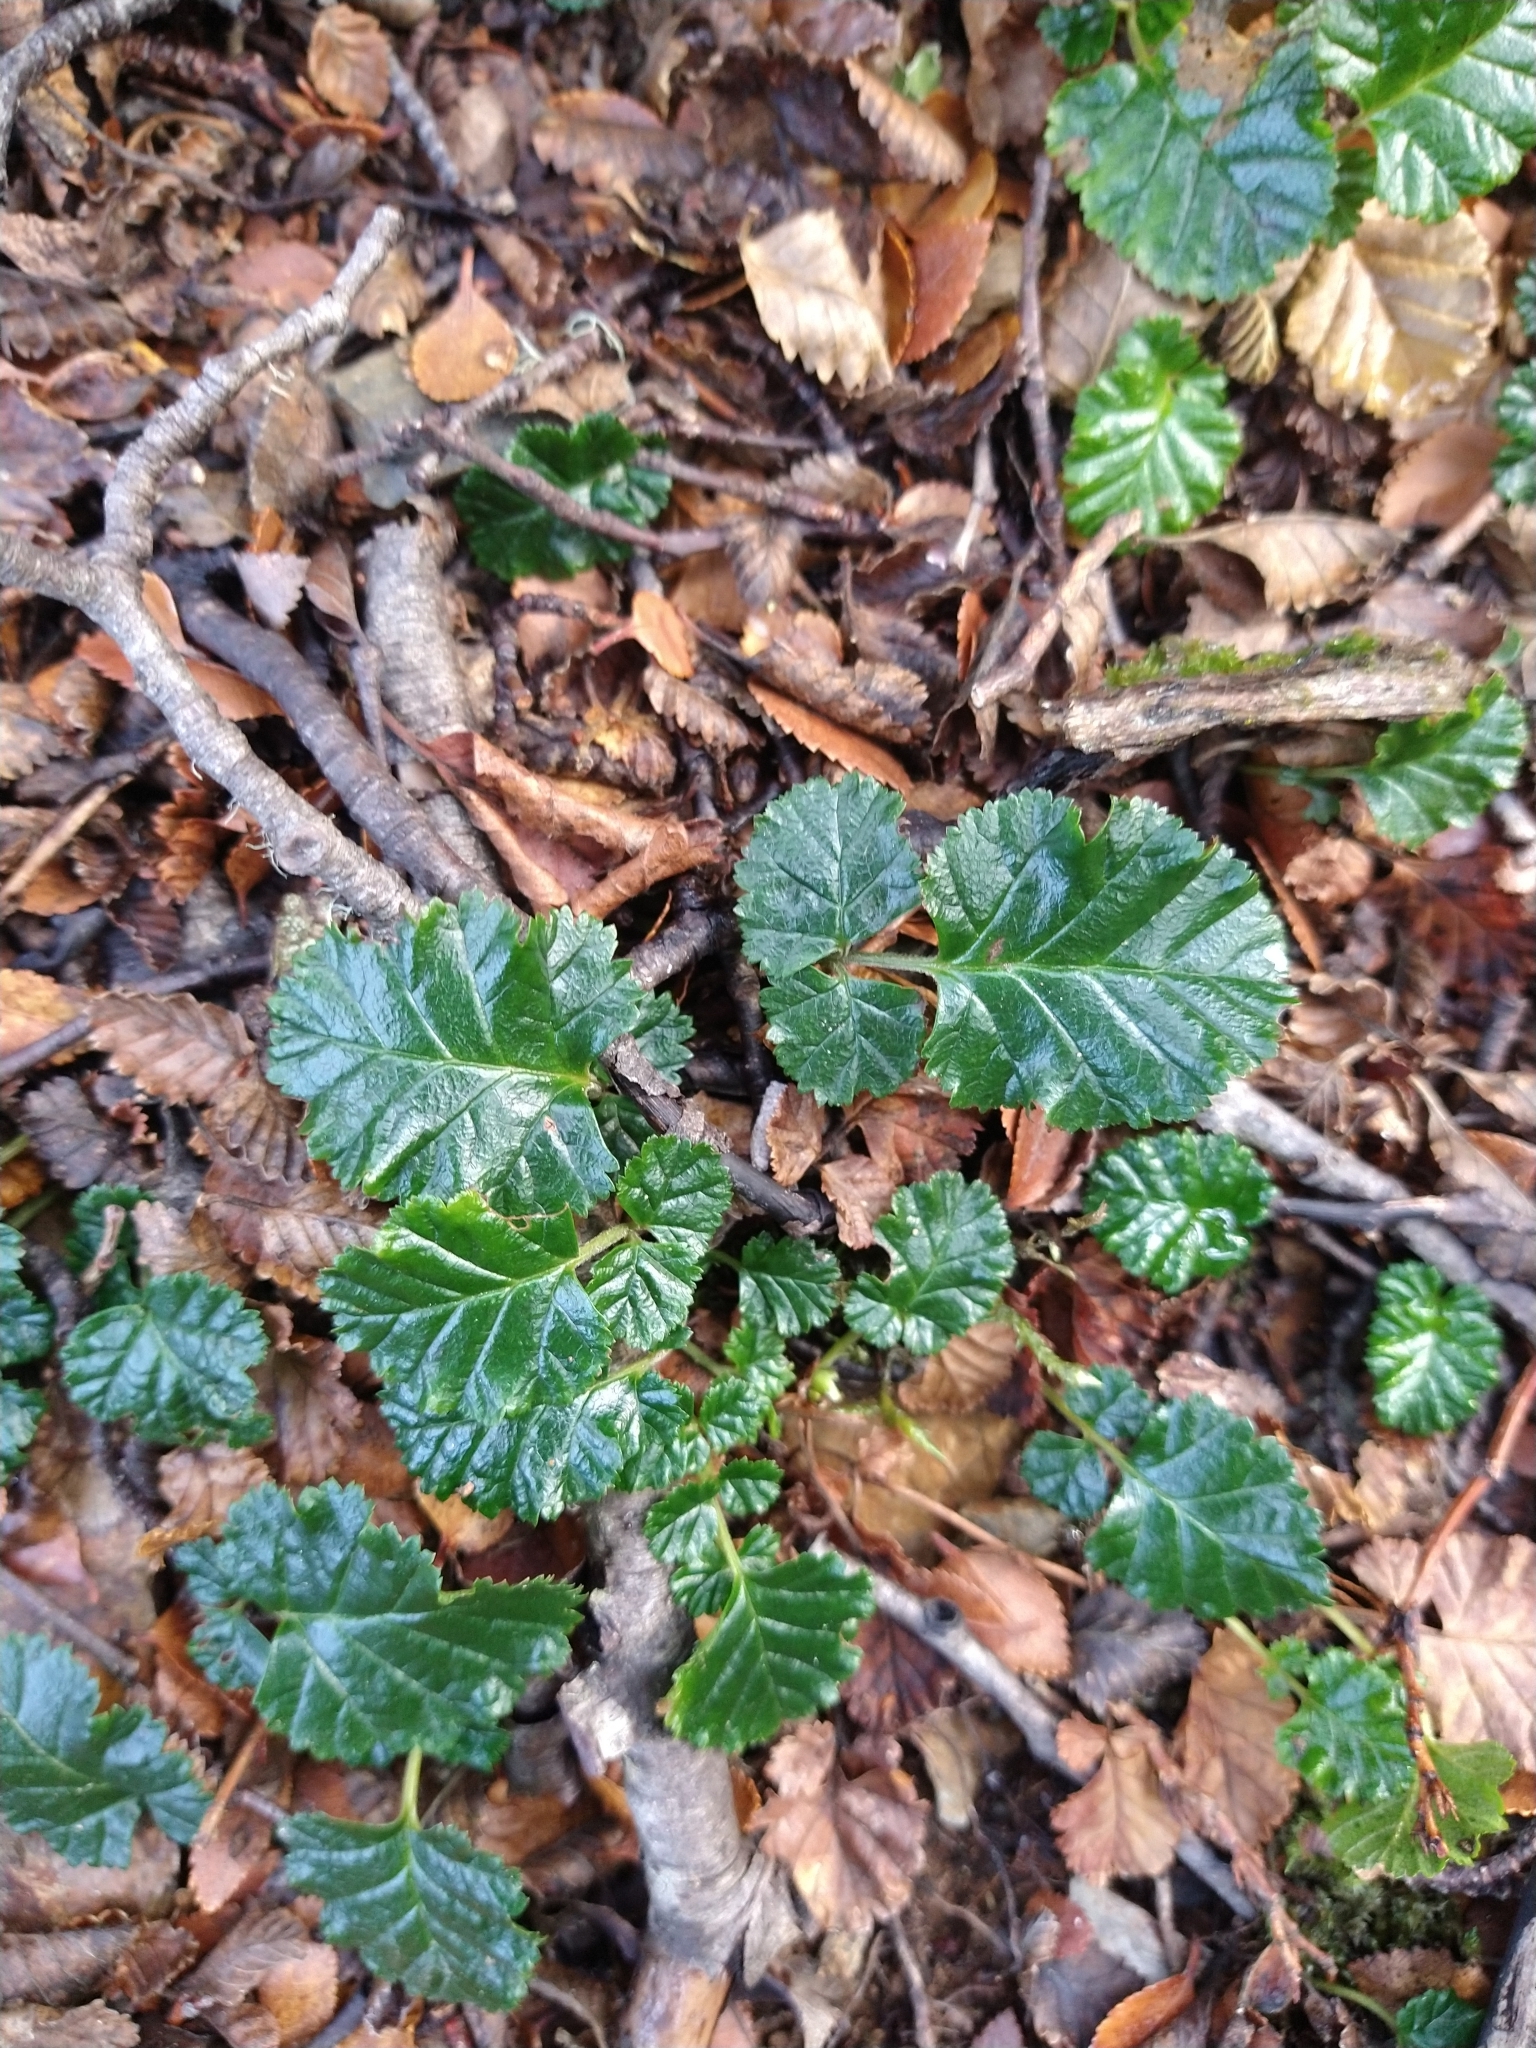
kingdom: Plantae
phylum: Tracheophyta
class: Magnoliopsida
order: Rosales
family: Rosaceae
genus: Rubus
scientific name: Rubus geoides
